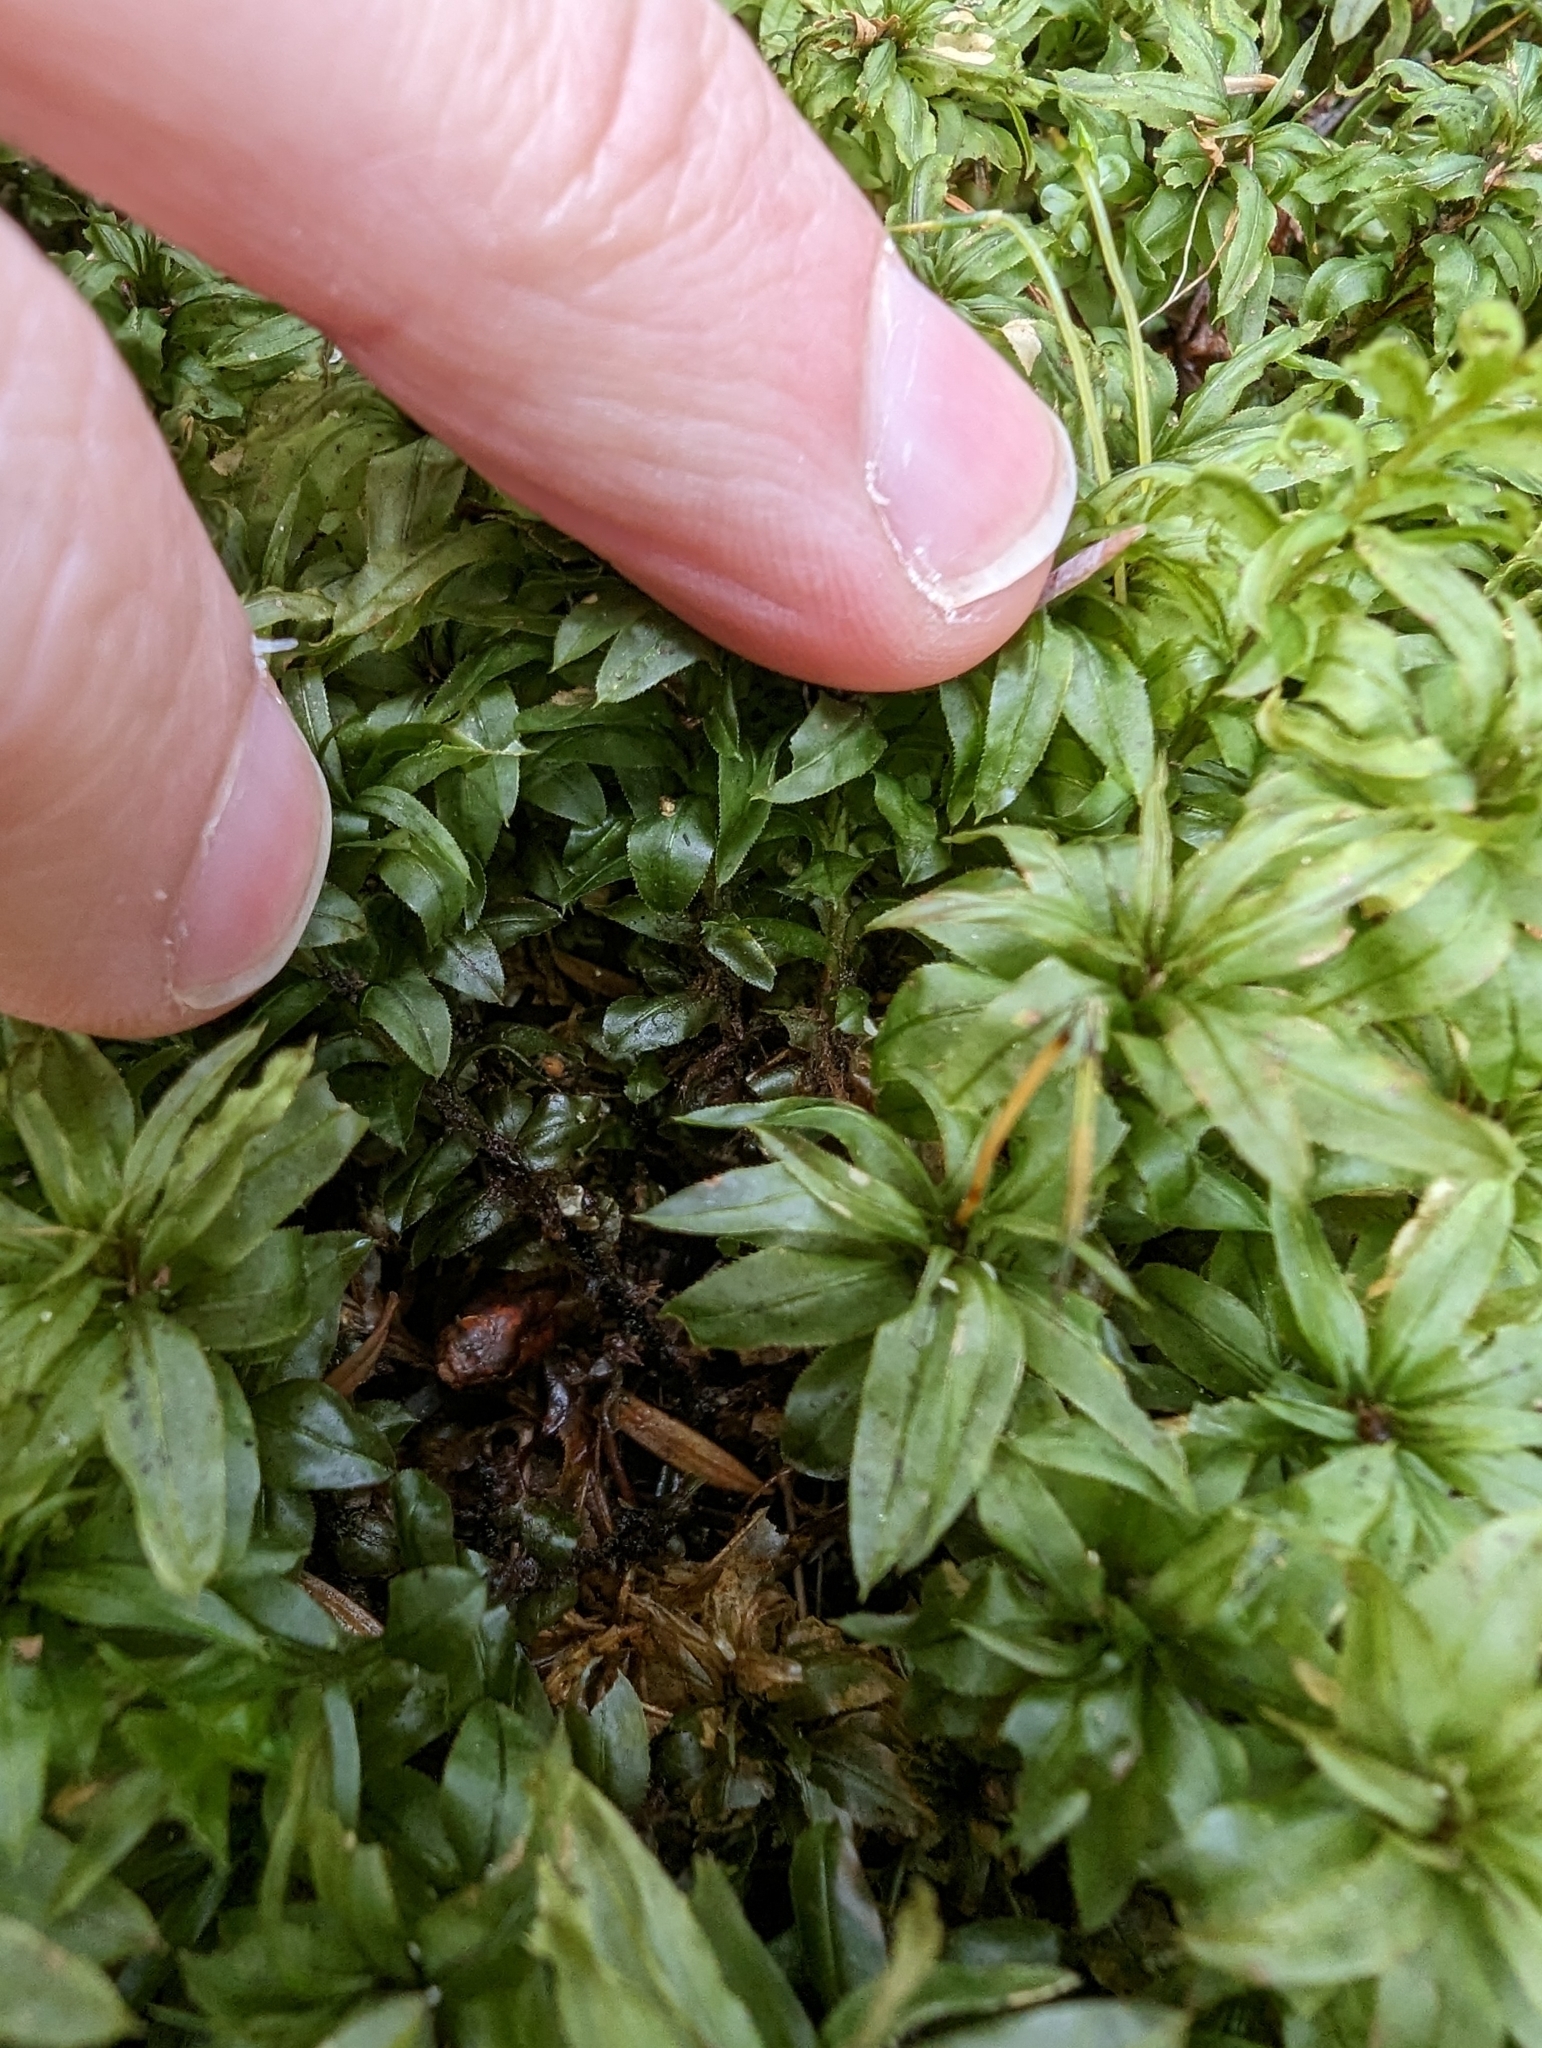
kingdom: Plantae
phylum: Bryophyta
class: Bryopsida
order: Bryales
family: Mniaceae
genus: Plagiomnium
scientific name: Plagiomnium insigne
